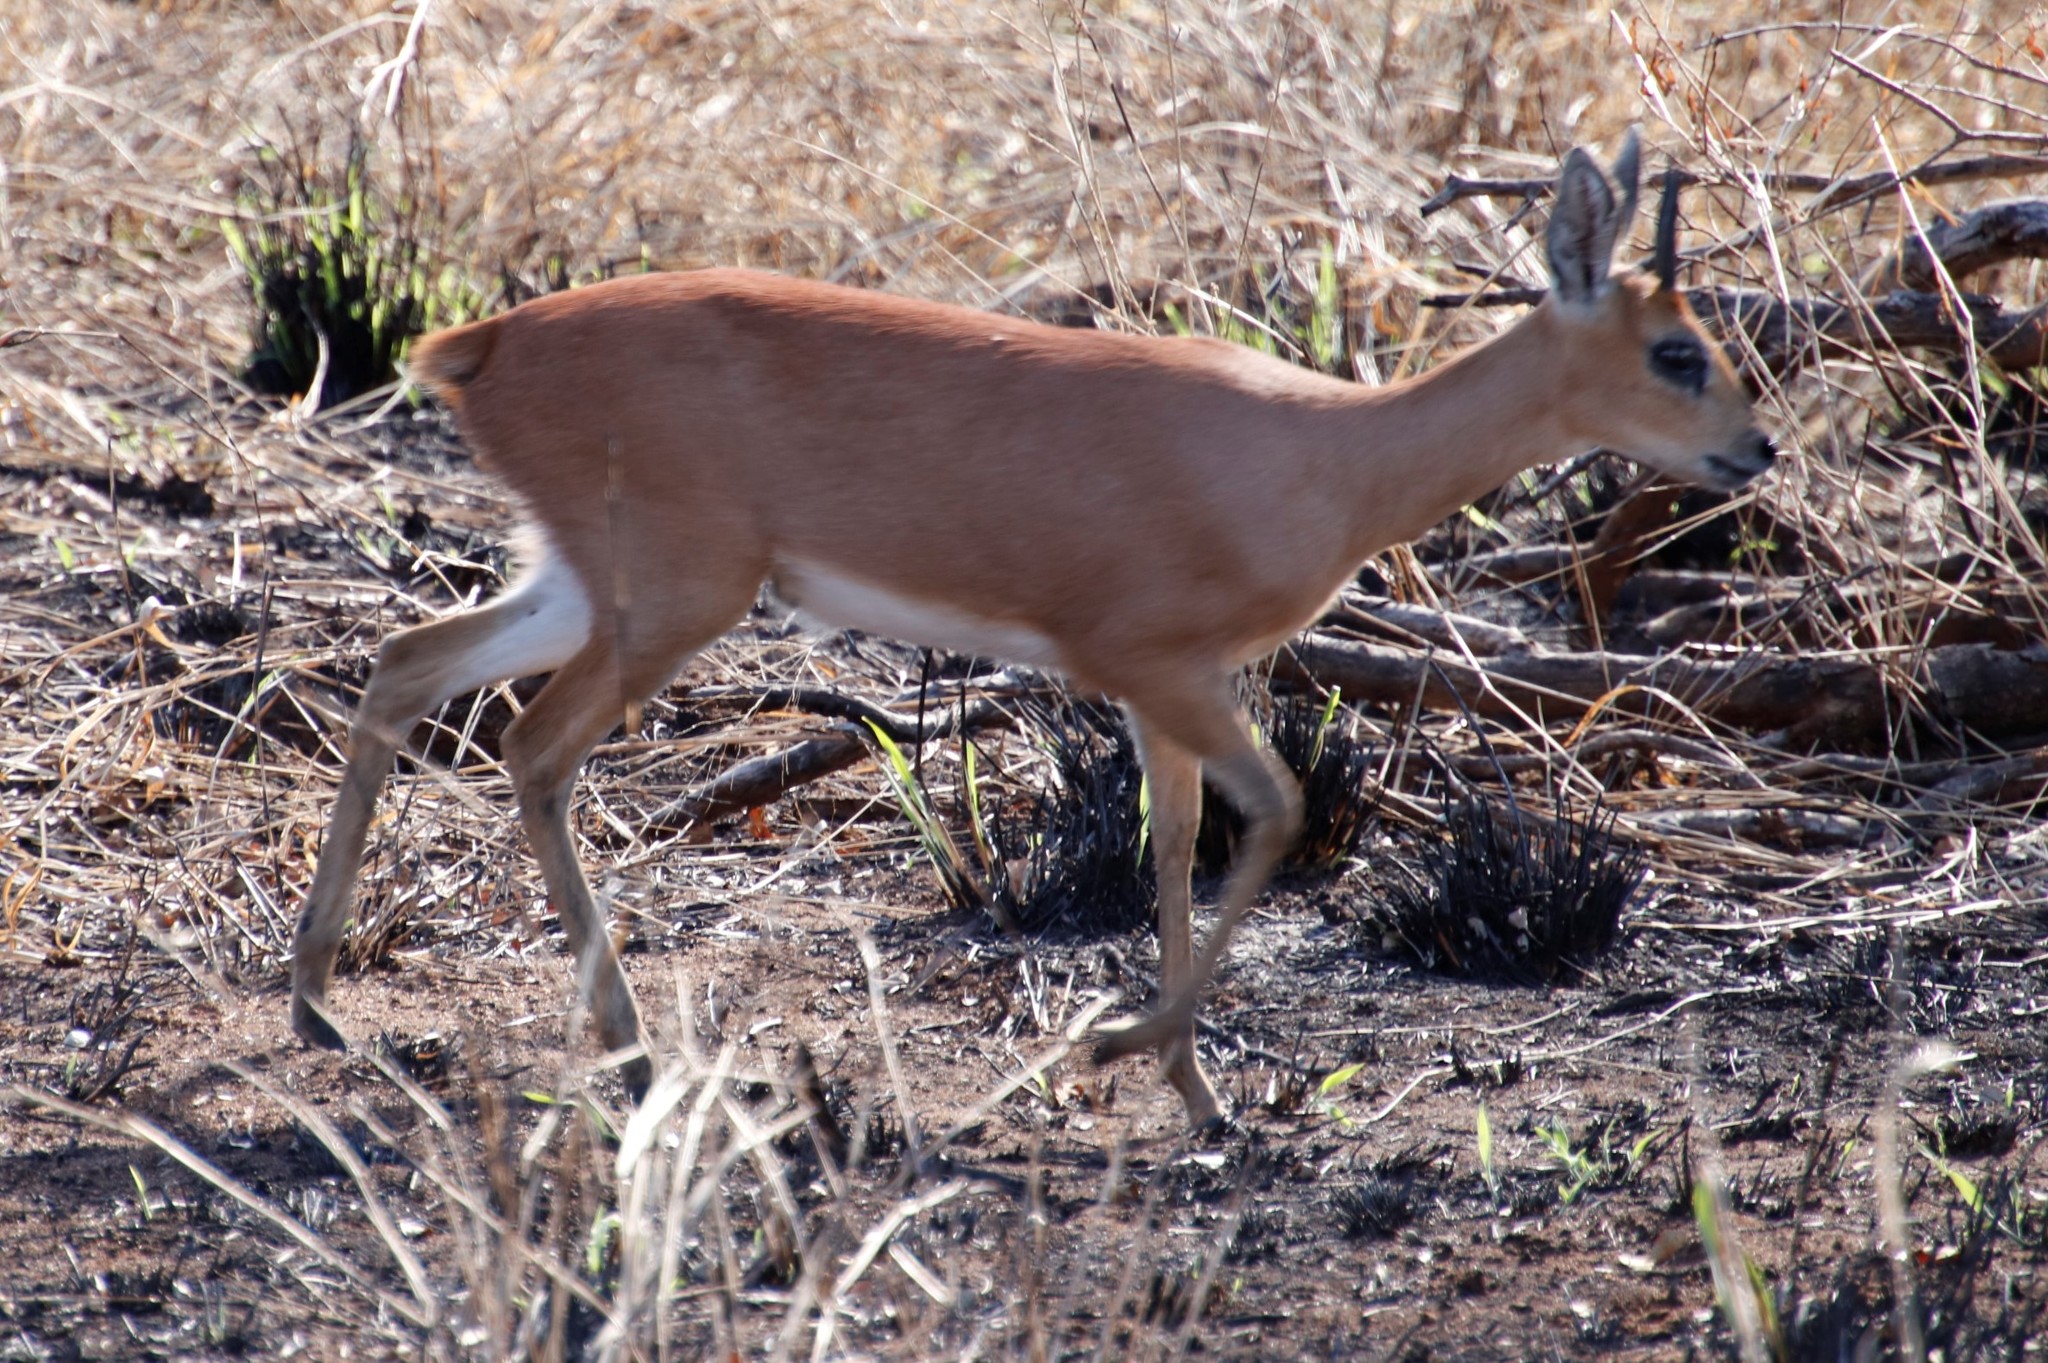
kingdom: Animalia
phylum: Chordata
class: Mammalia
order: Artiodactyla
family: Bovidae
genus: Raphicerus
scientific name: Raphicerus campestris
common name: Steenbok
